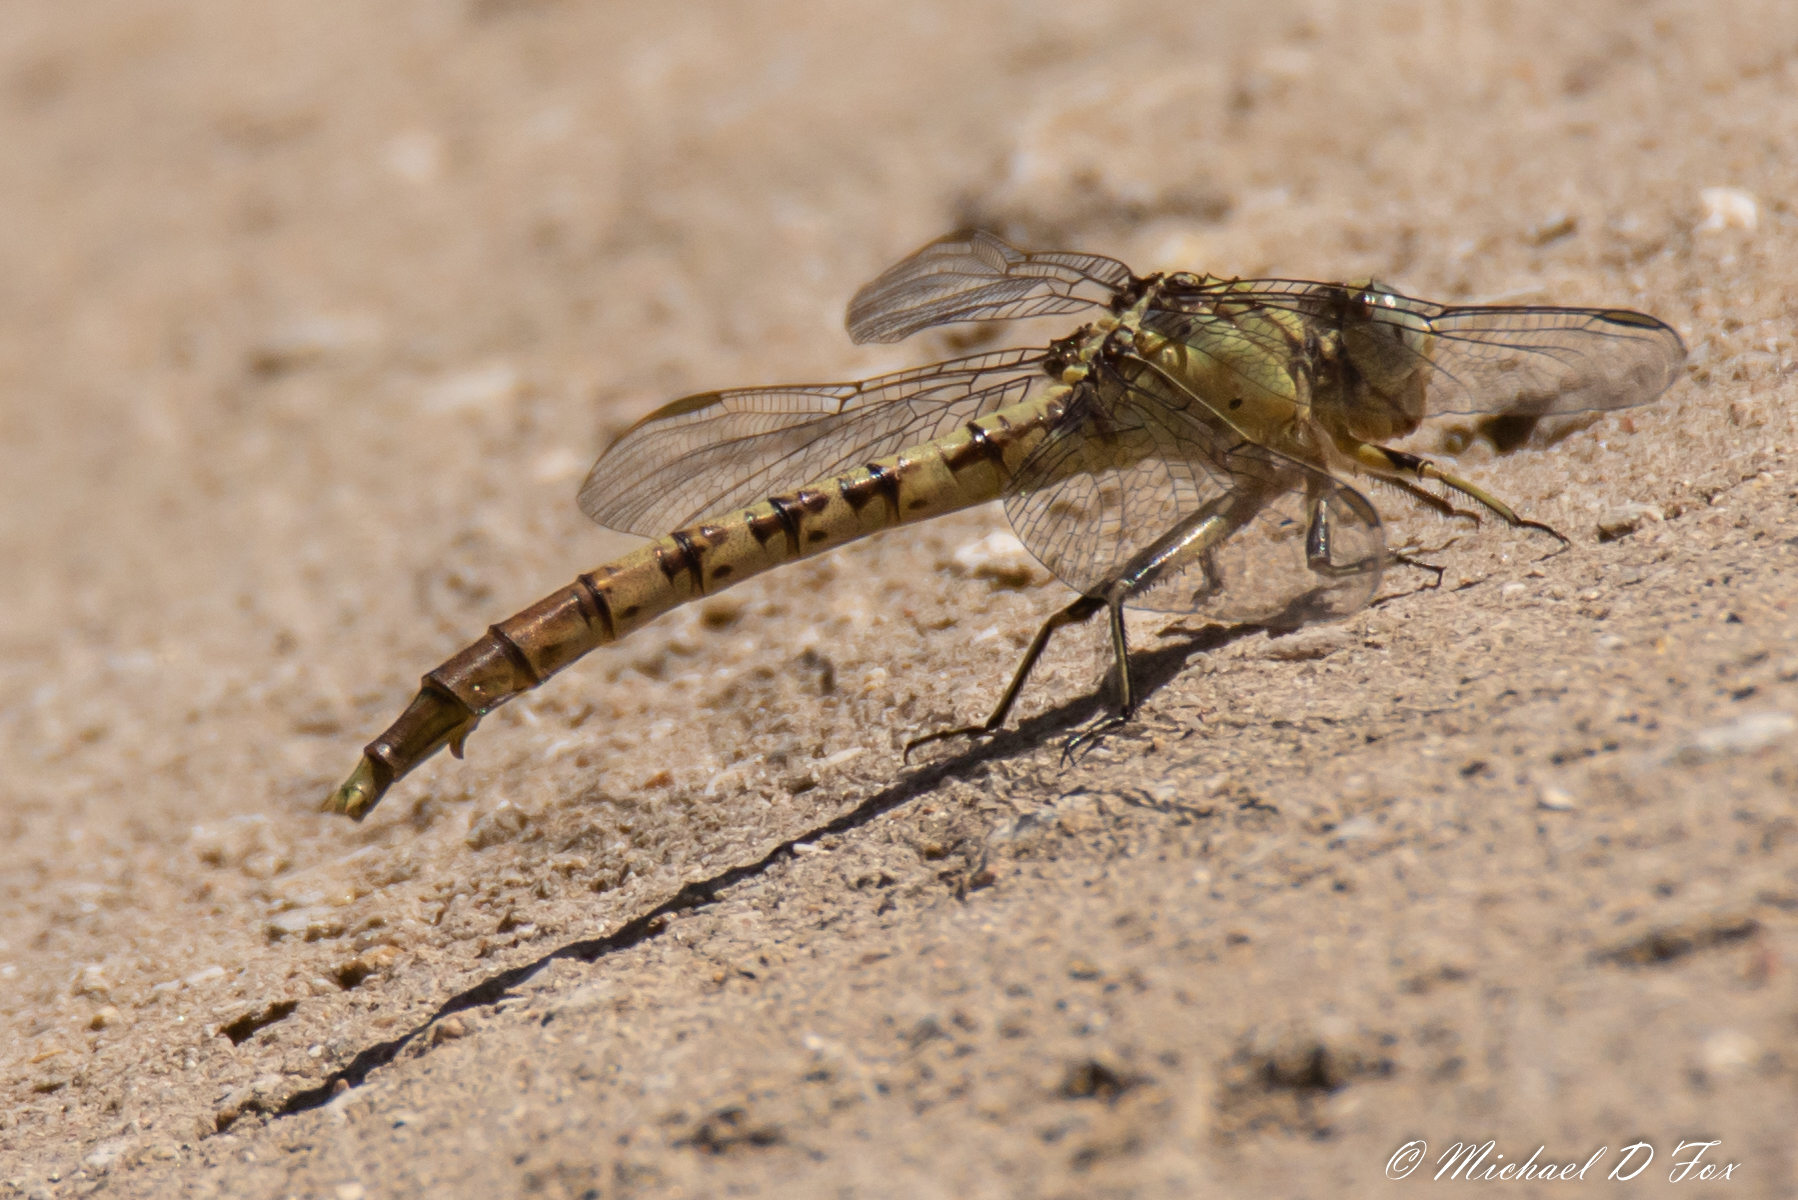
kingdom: Animalia
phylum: Arthropoda
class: Insecta
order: Odonata
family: Gomphidae
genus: Arigomphus
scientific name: Arigomphus submedianus
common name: Jade clubtail
